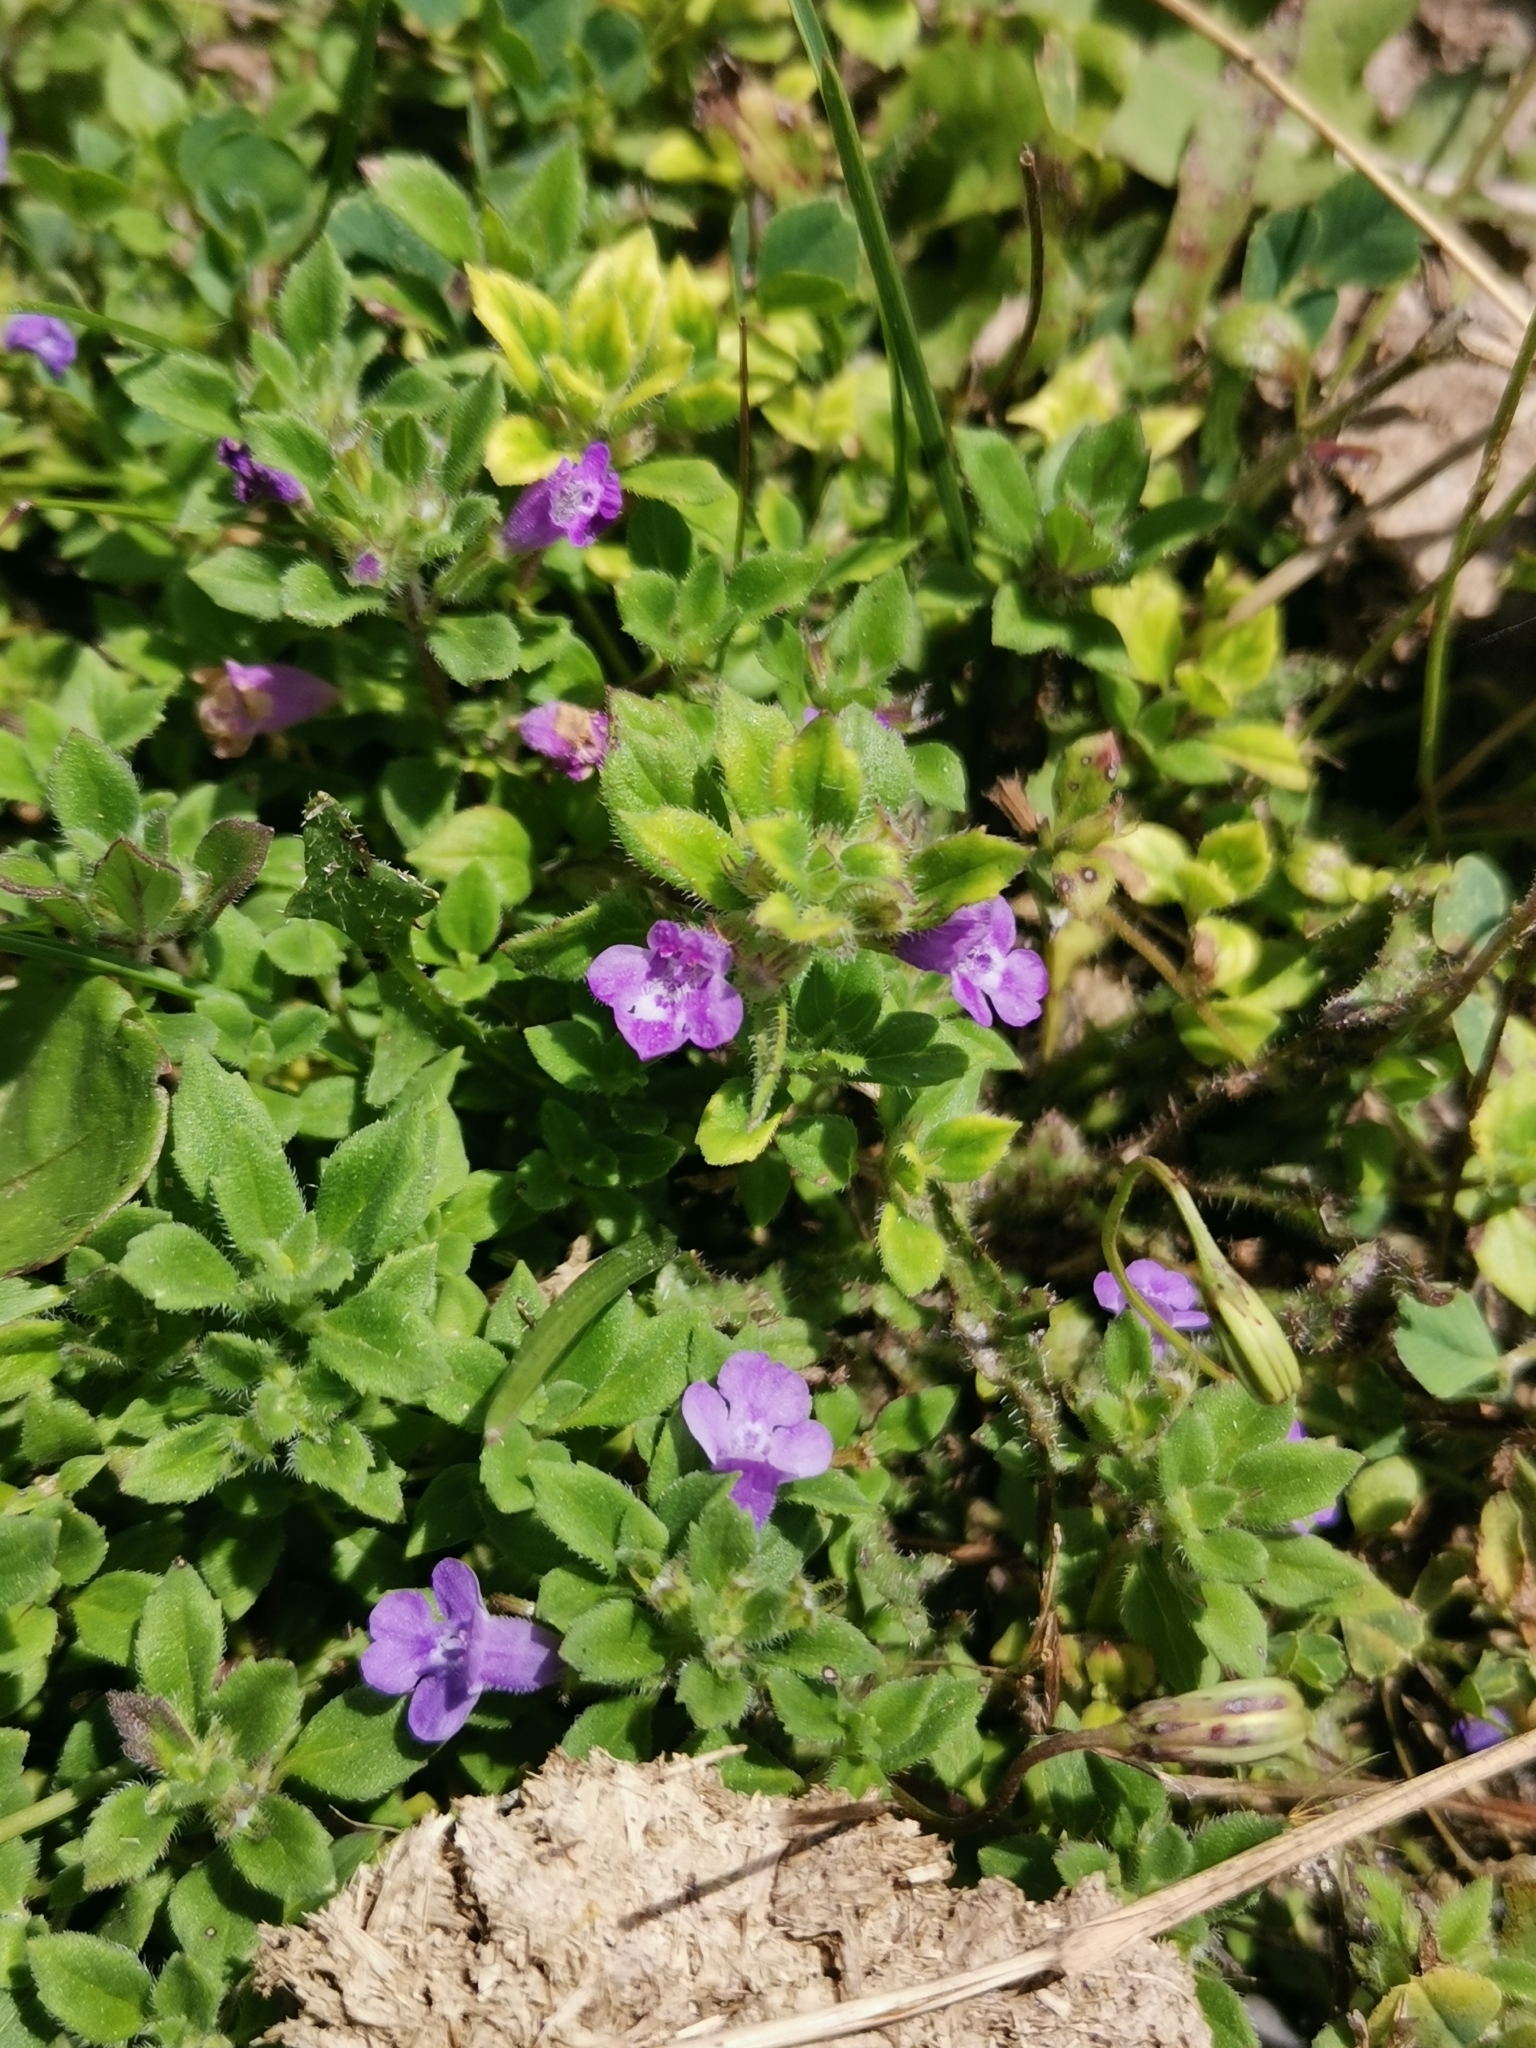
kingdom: Plantae
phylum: Tracheophyta
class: Magnoliopsida
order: Lamiales
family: Lamiaceae
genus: Clinopodium
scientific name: Clinopodium alpinum
